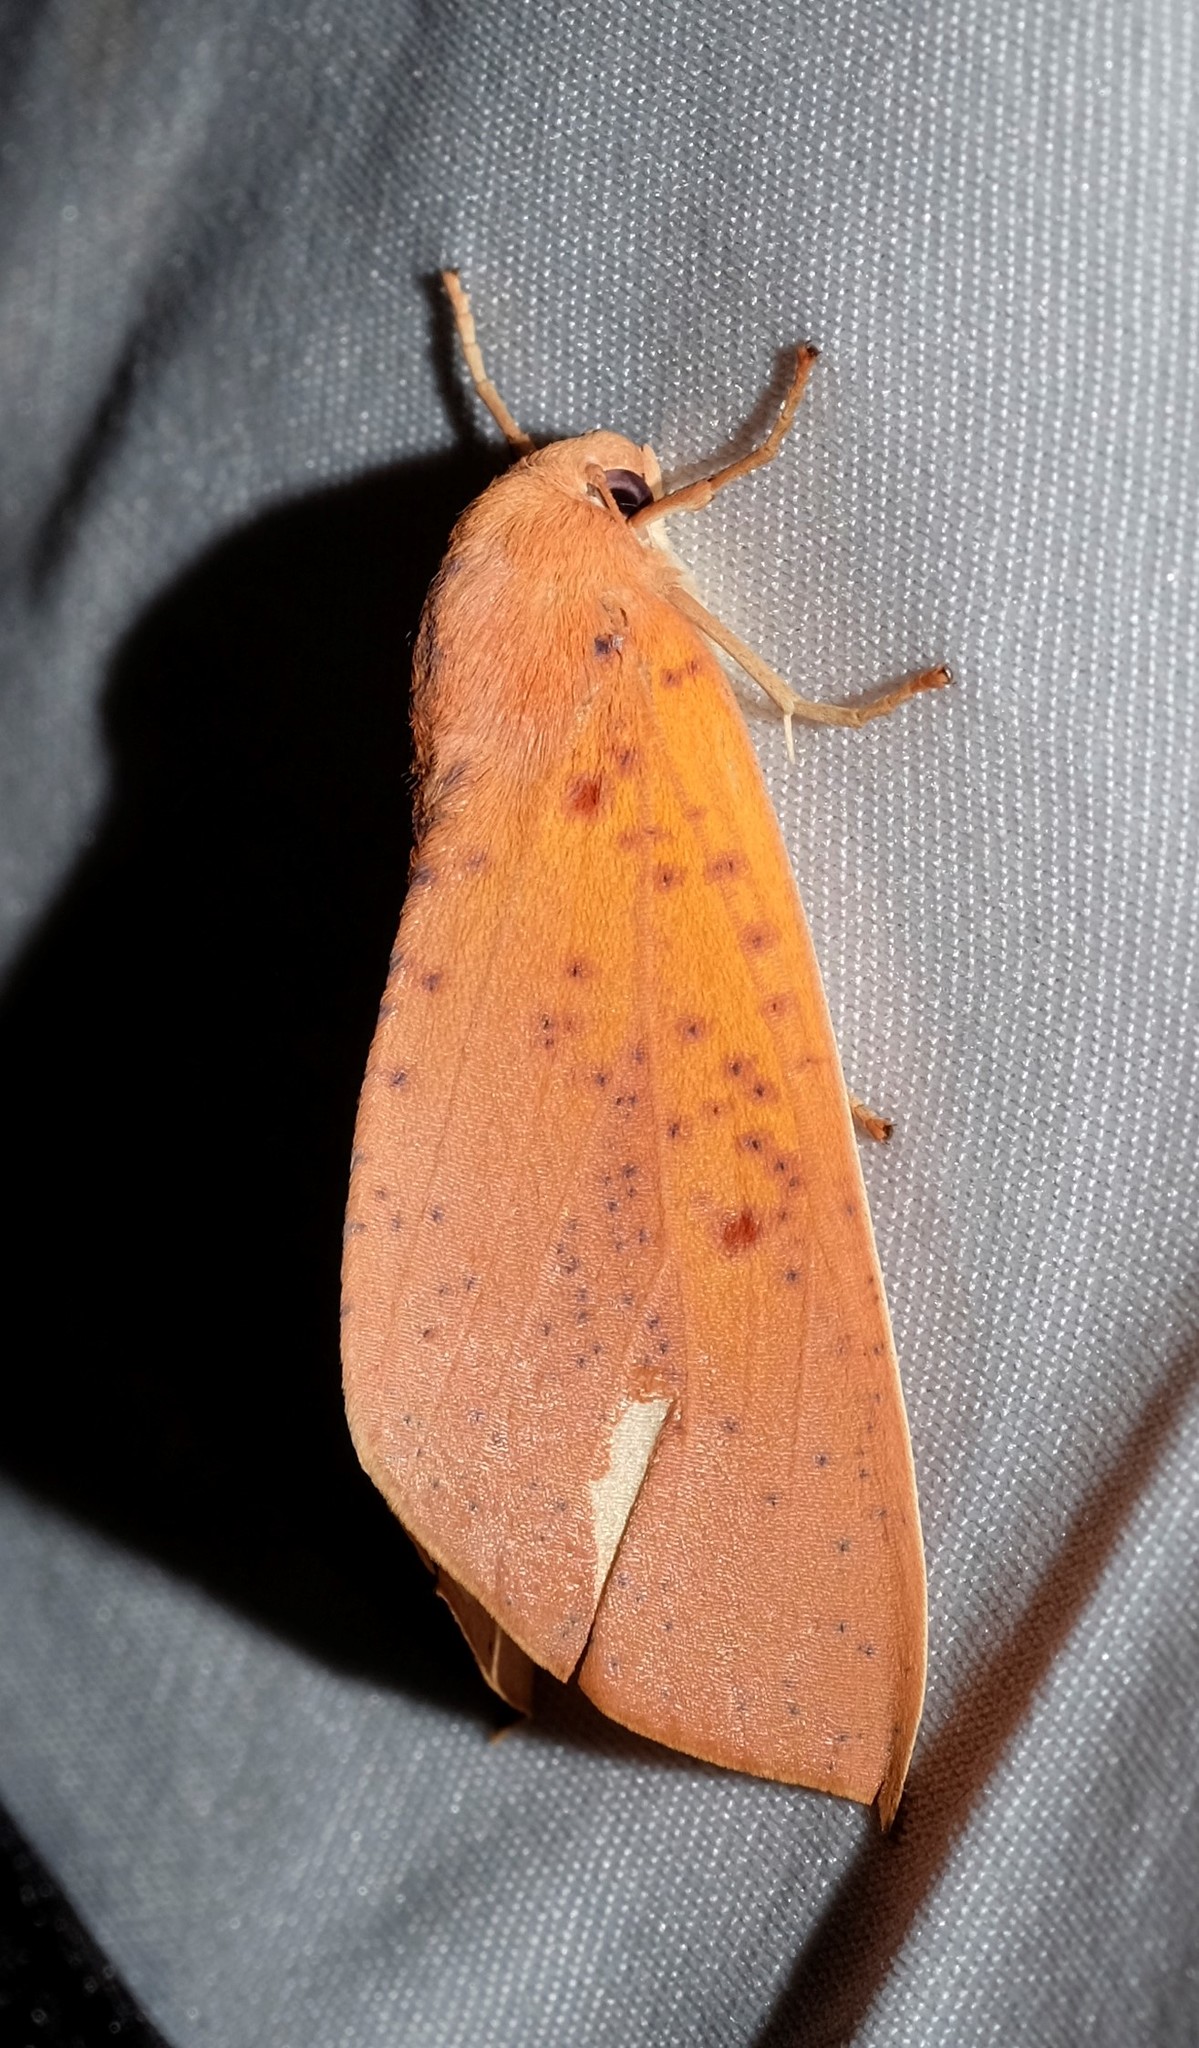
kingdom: Animalia
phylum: Arthropoda
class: Insecta
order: Lepidoptera
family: Geometridae
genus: Plesanemma
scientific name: Plesanemma fucata
